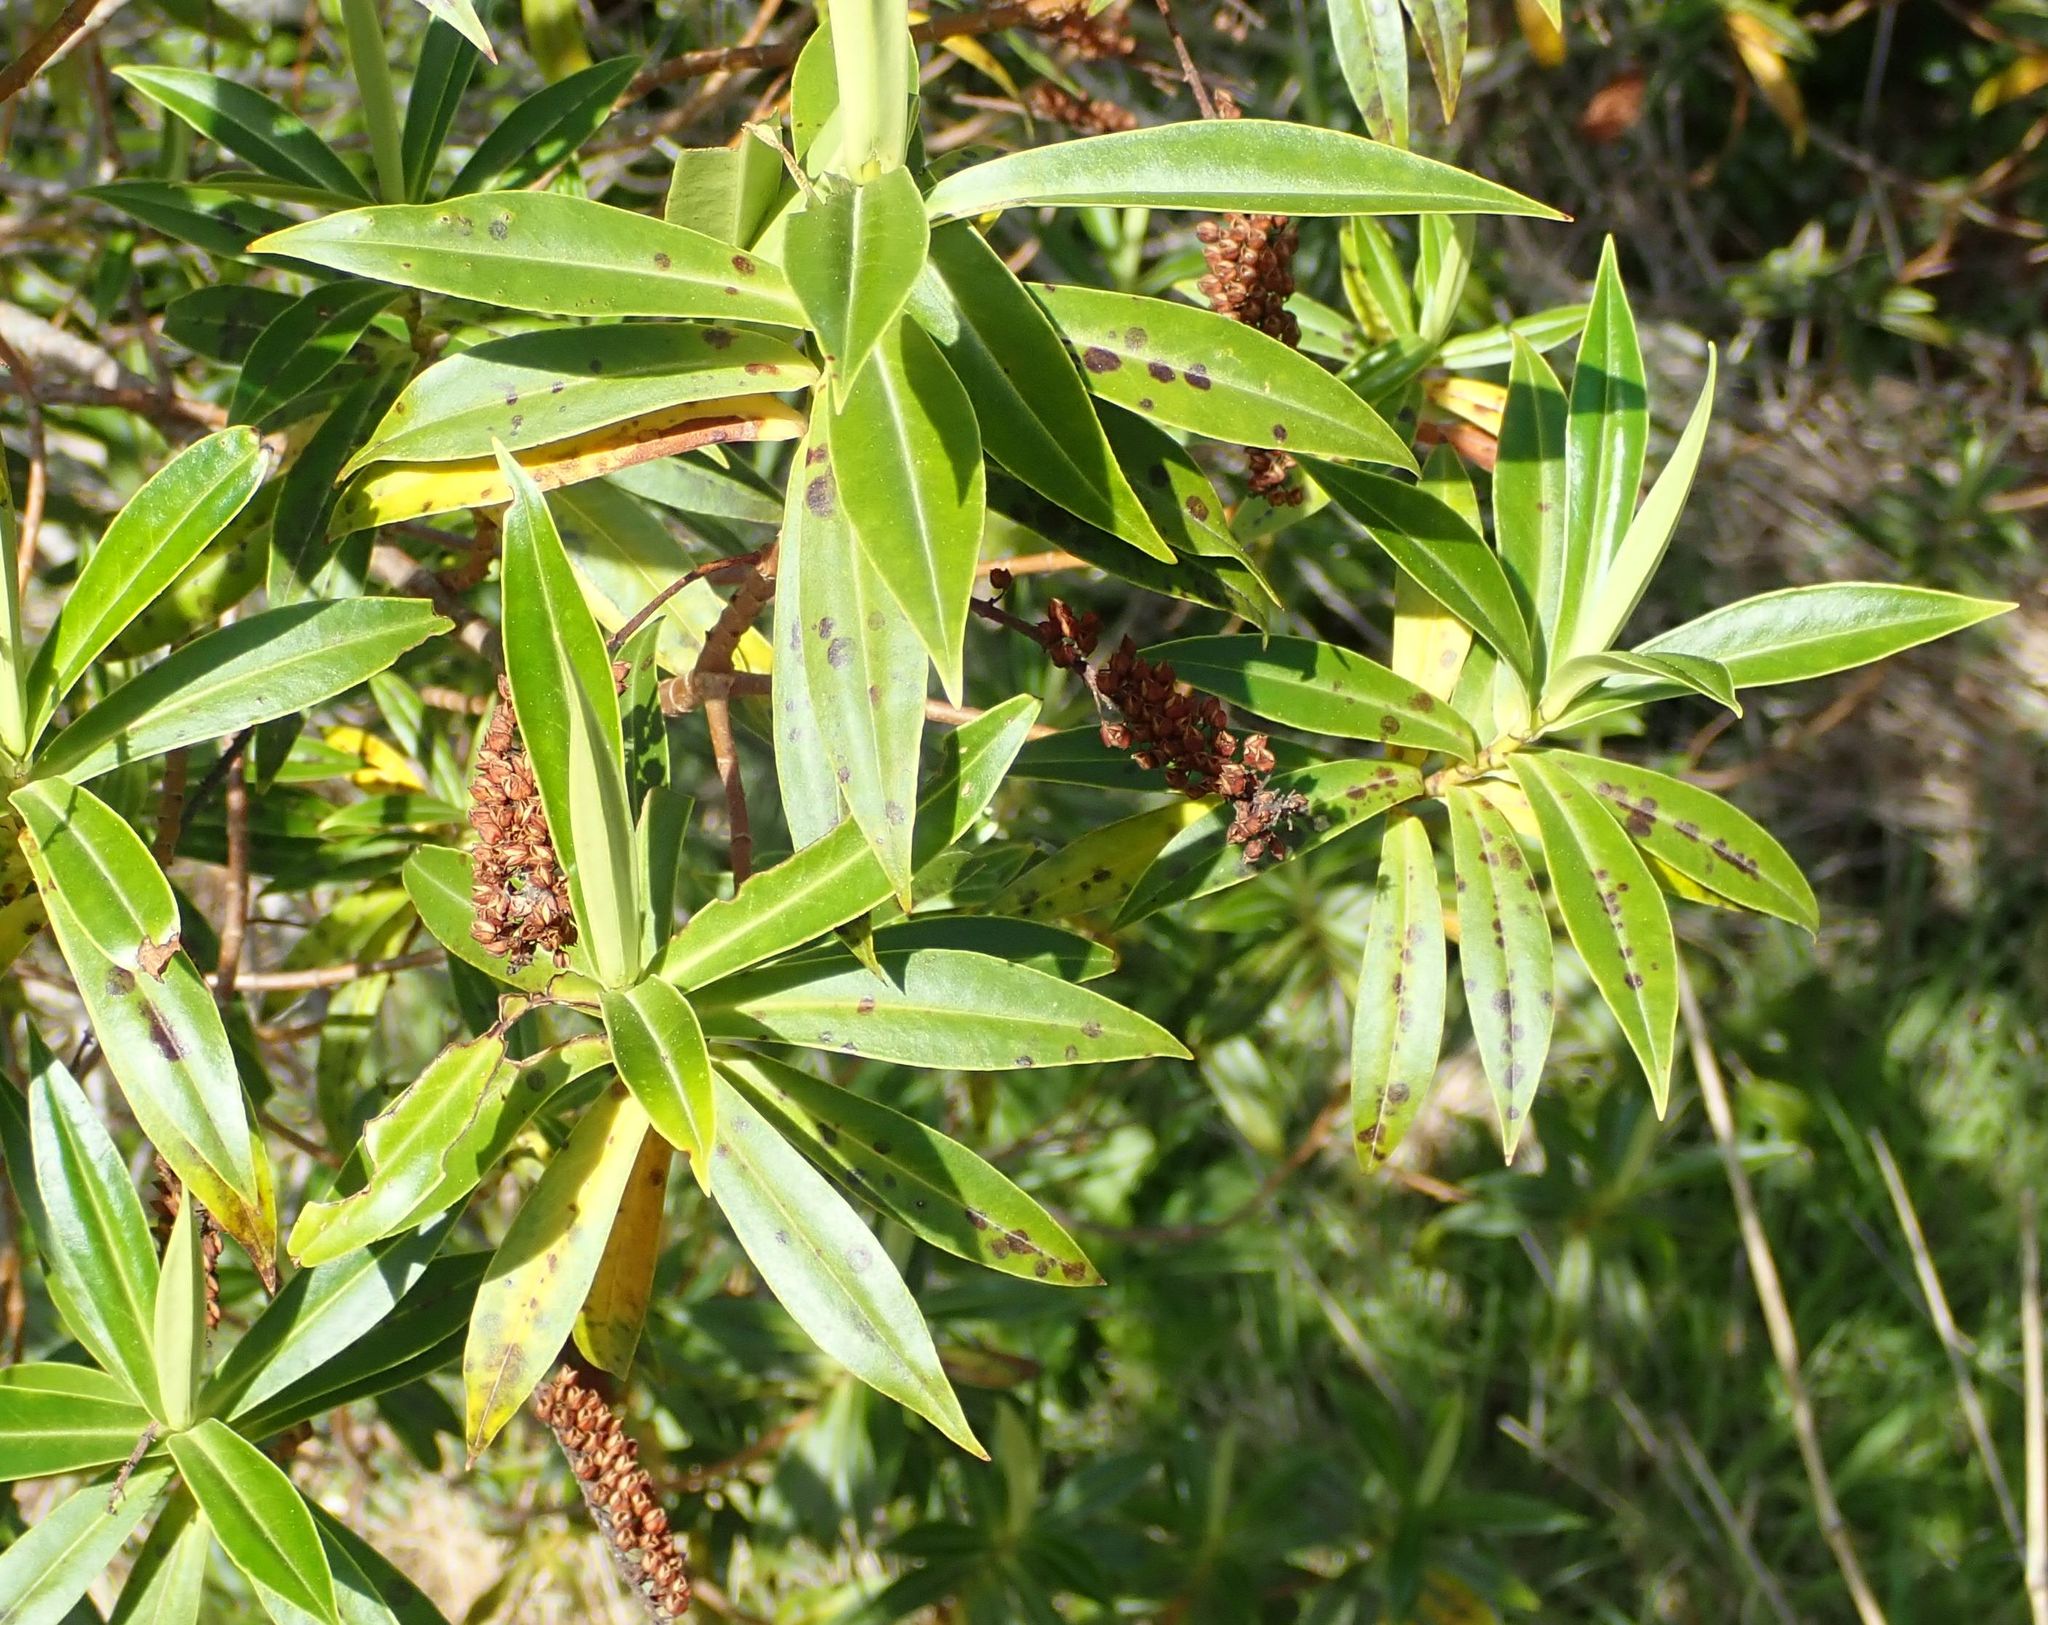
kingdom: Plantae
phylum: Tracheophyta
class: Magnoliopsida
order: Lamiales
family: Plantaginaceae
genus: Veronica
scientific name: Veronica salicifolia
